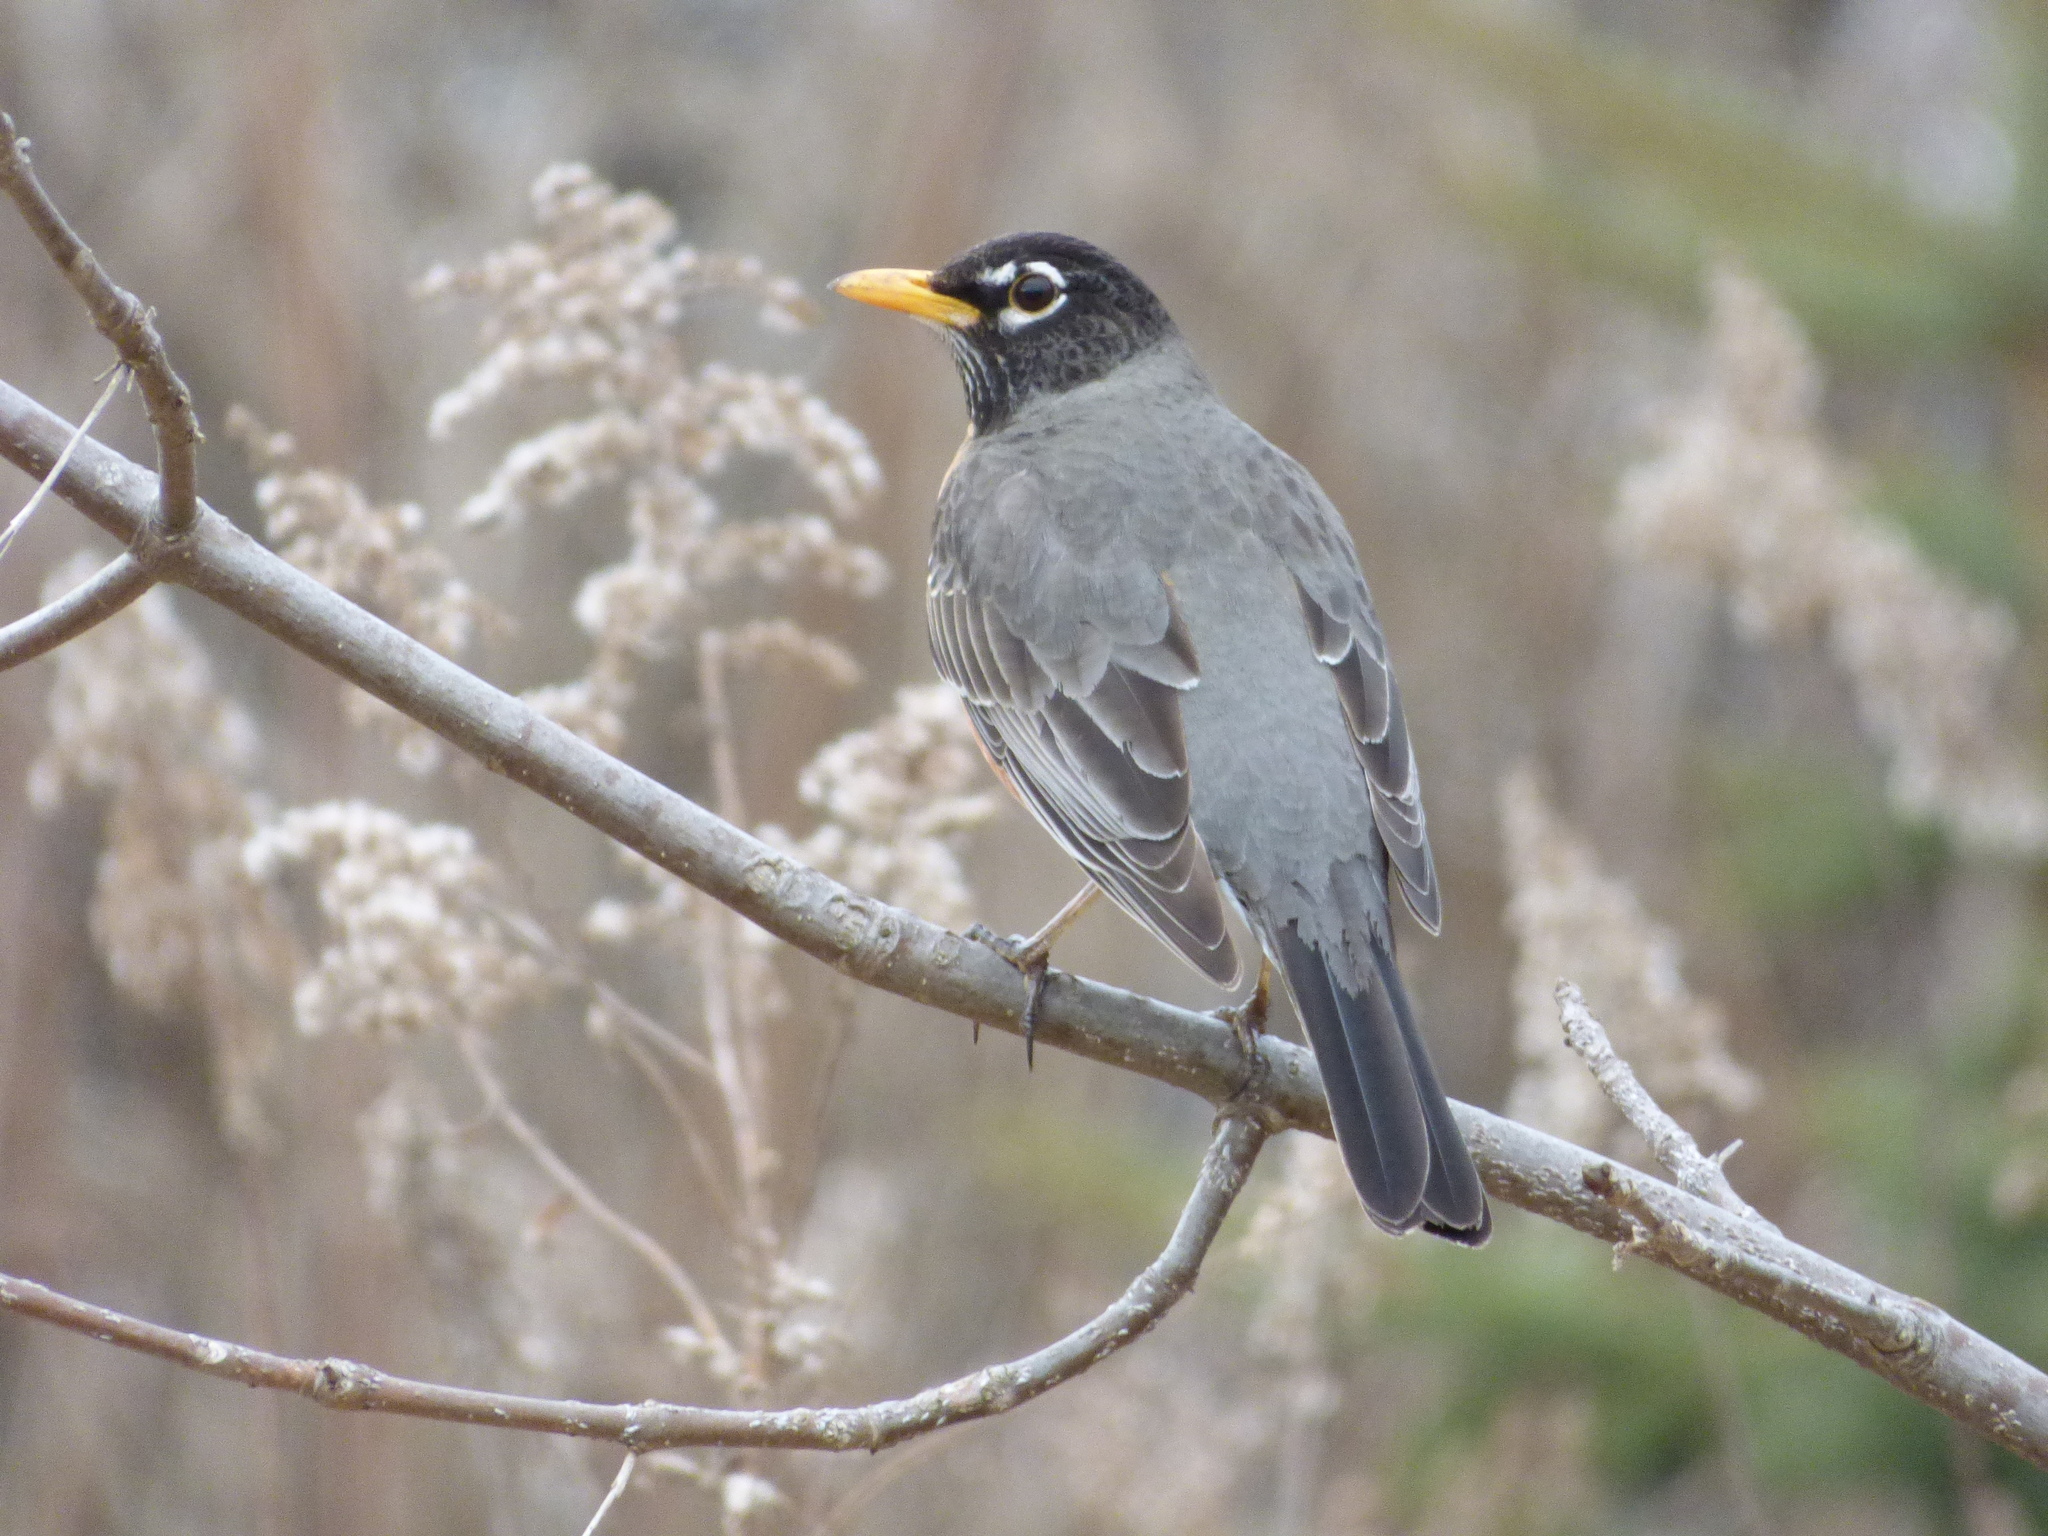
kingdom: Animalia
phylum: Chordata
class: Aves
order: Passeriformes
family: Turdidae
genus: Turdus
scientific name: Turdus migratorius
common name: American robin
